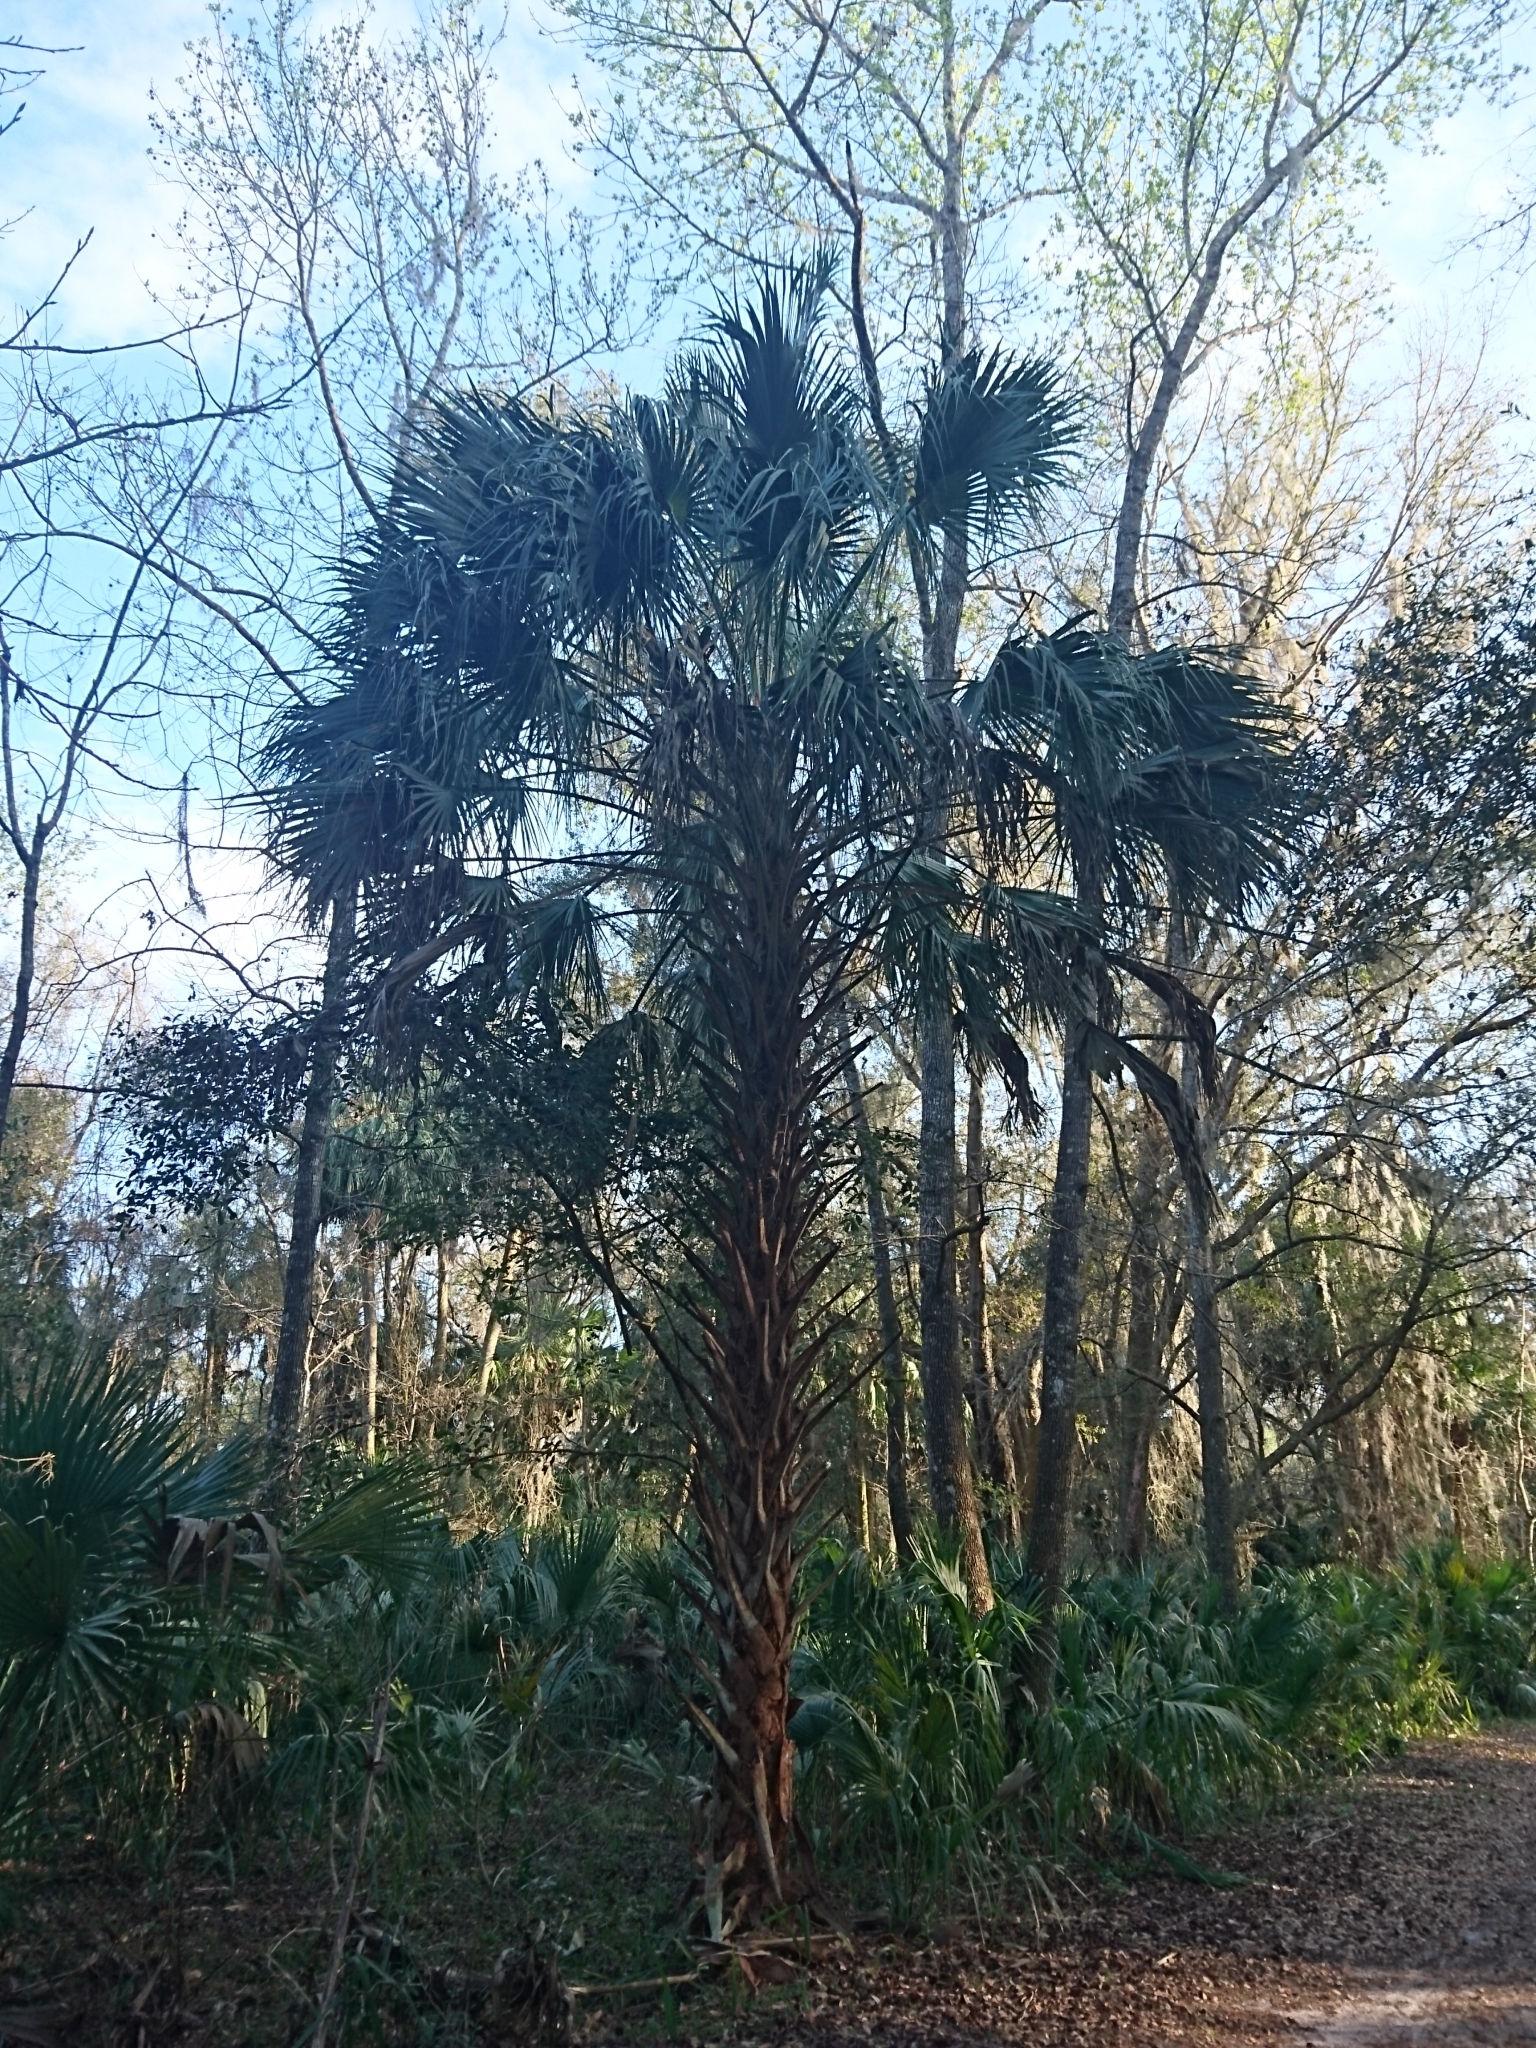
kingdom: Plantae
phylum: Tracheophyta
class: Liliopsida
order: Arecales
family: Arecaceae
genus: Sabal
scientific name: Sabal palmetto
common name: Blue palmetto
